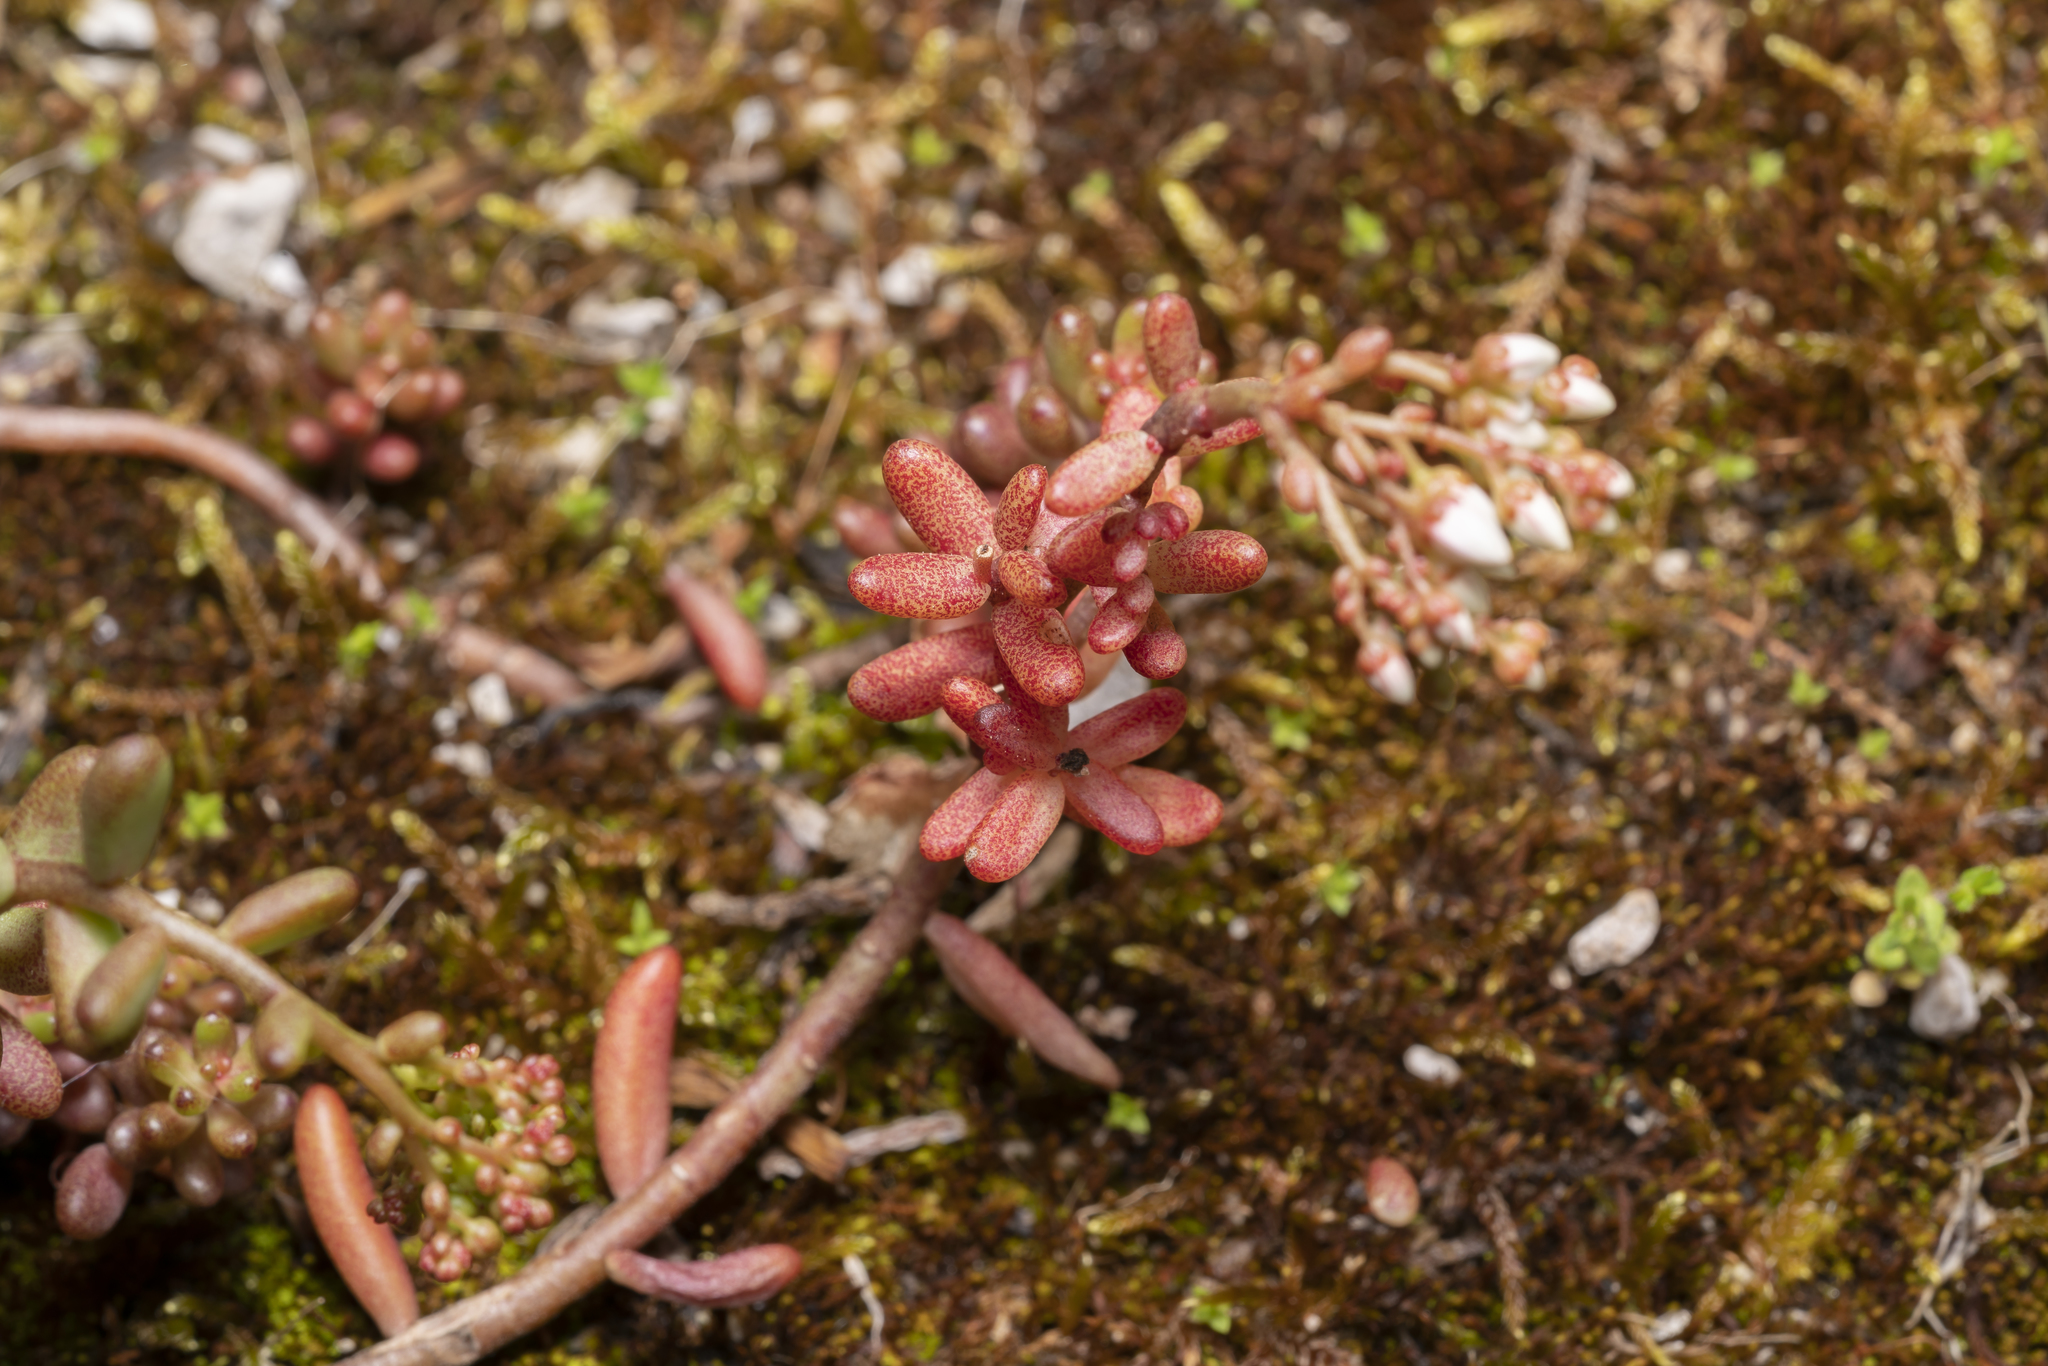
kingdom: Plantae
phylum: Tracheophyta
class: Magnoliopsida
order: Saxifragales
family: Crassulaceae
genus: Sedum
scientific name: Sedum album
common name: White stonecrop
